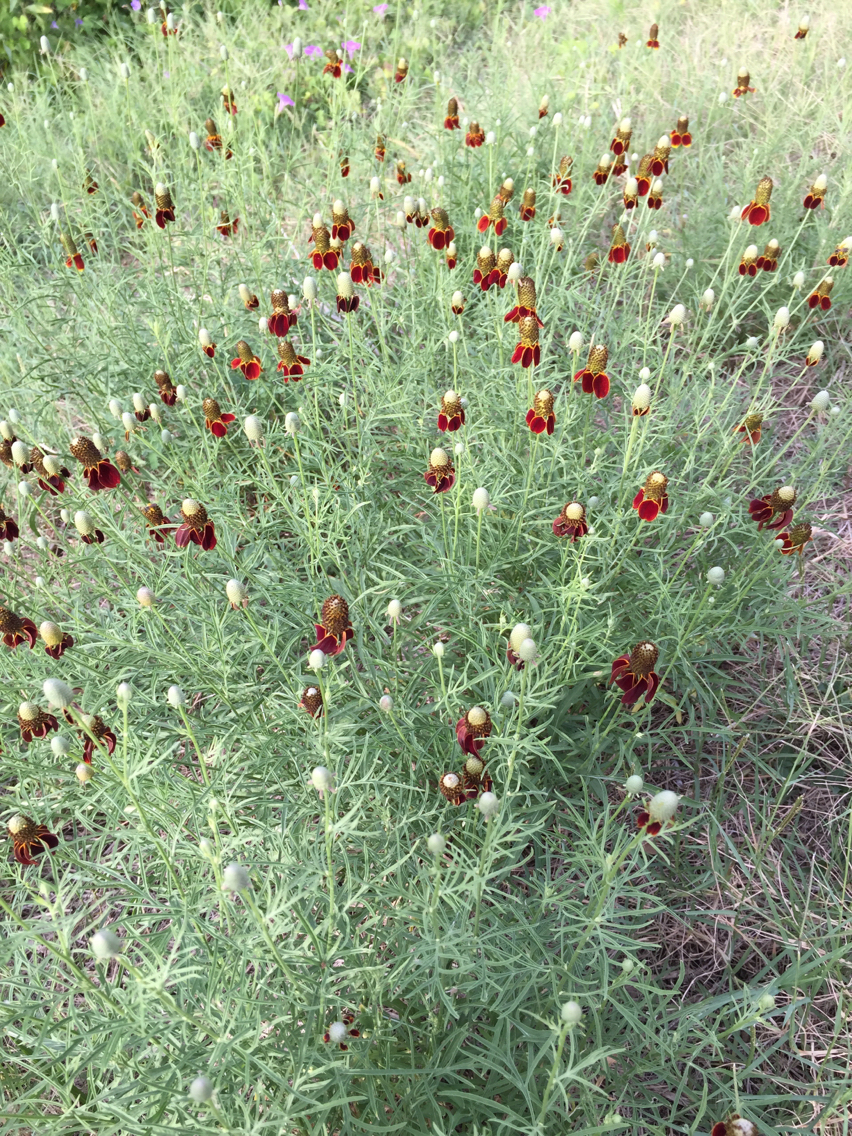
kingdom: Plantae
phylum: Tracheophyta
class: Magnoliopsida
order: Asterales
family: Asteraceae
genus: Ratibida
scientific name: Ratibida columnifera
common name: Prairie coneflower
